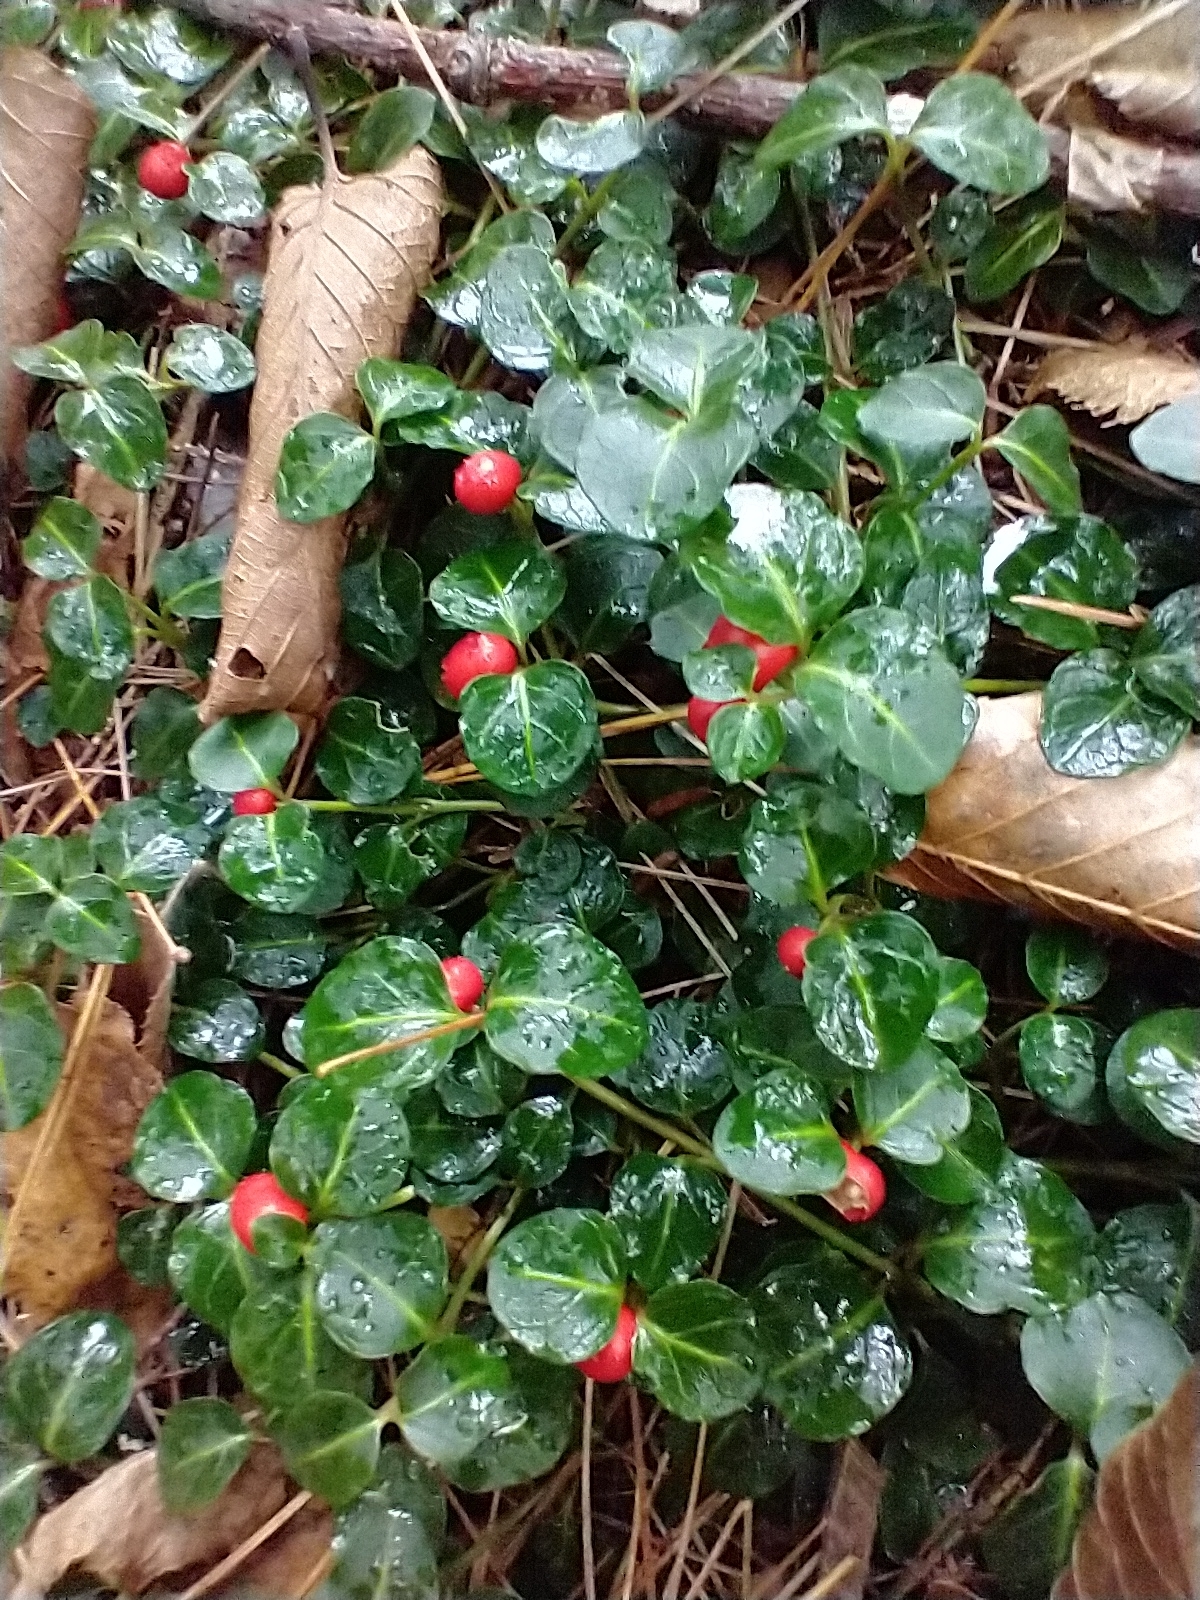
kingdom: Plantae
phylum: Tracheophyta
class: Magnoliopsida
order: Gentianales
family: Rubiaceae
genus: Mitchella
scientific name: Mitchella repens
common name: Partridge-berry
